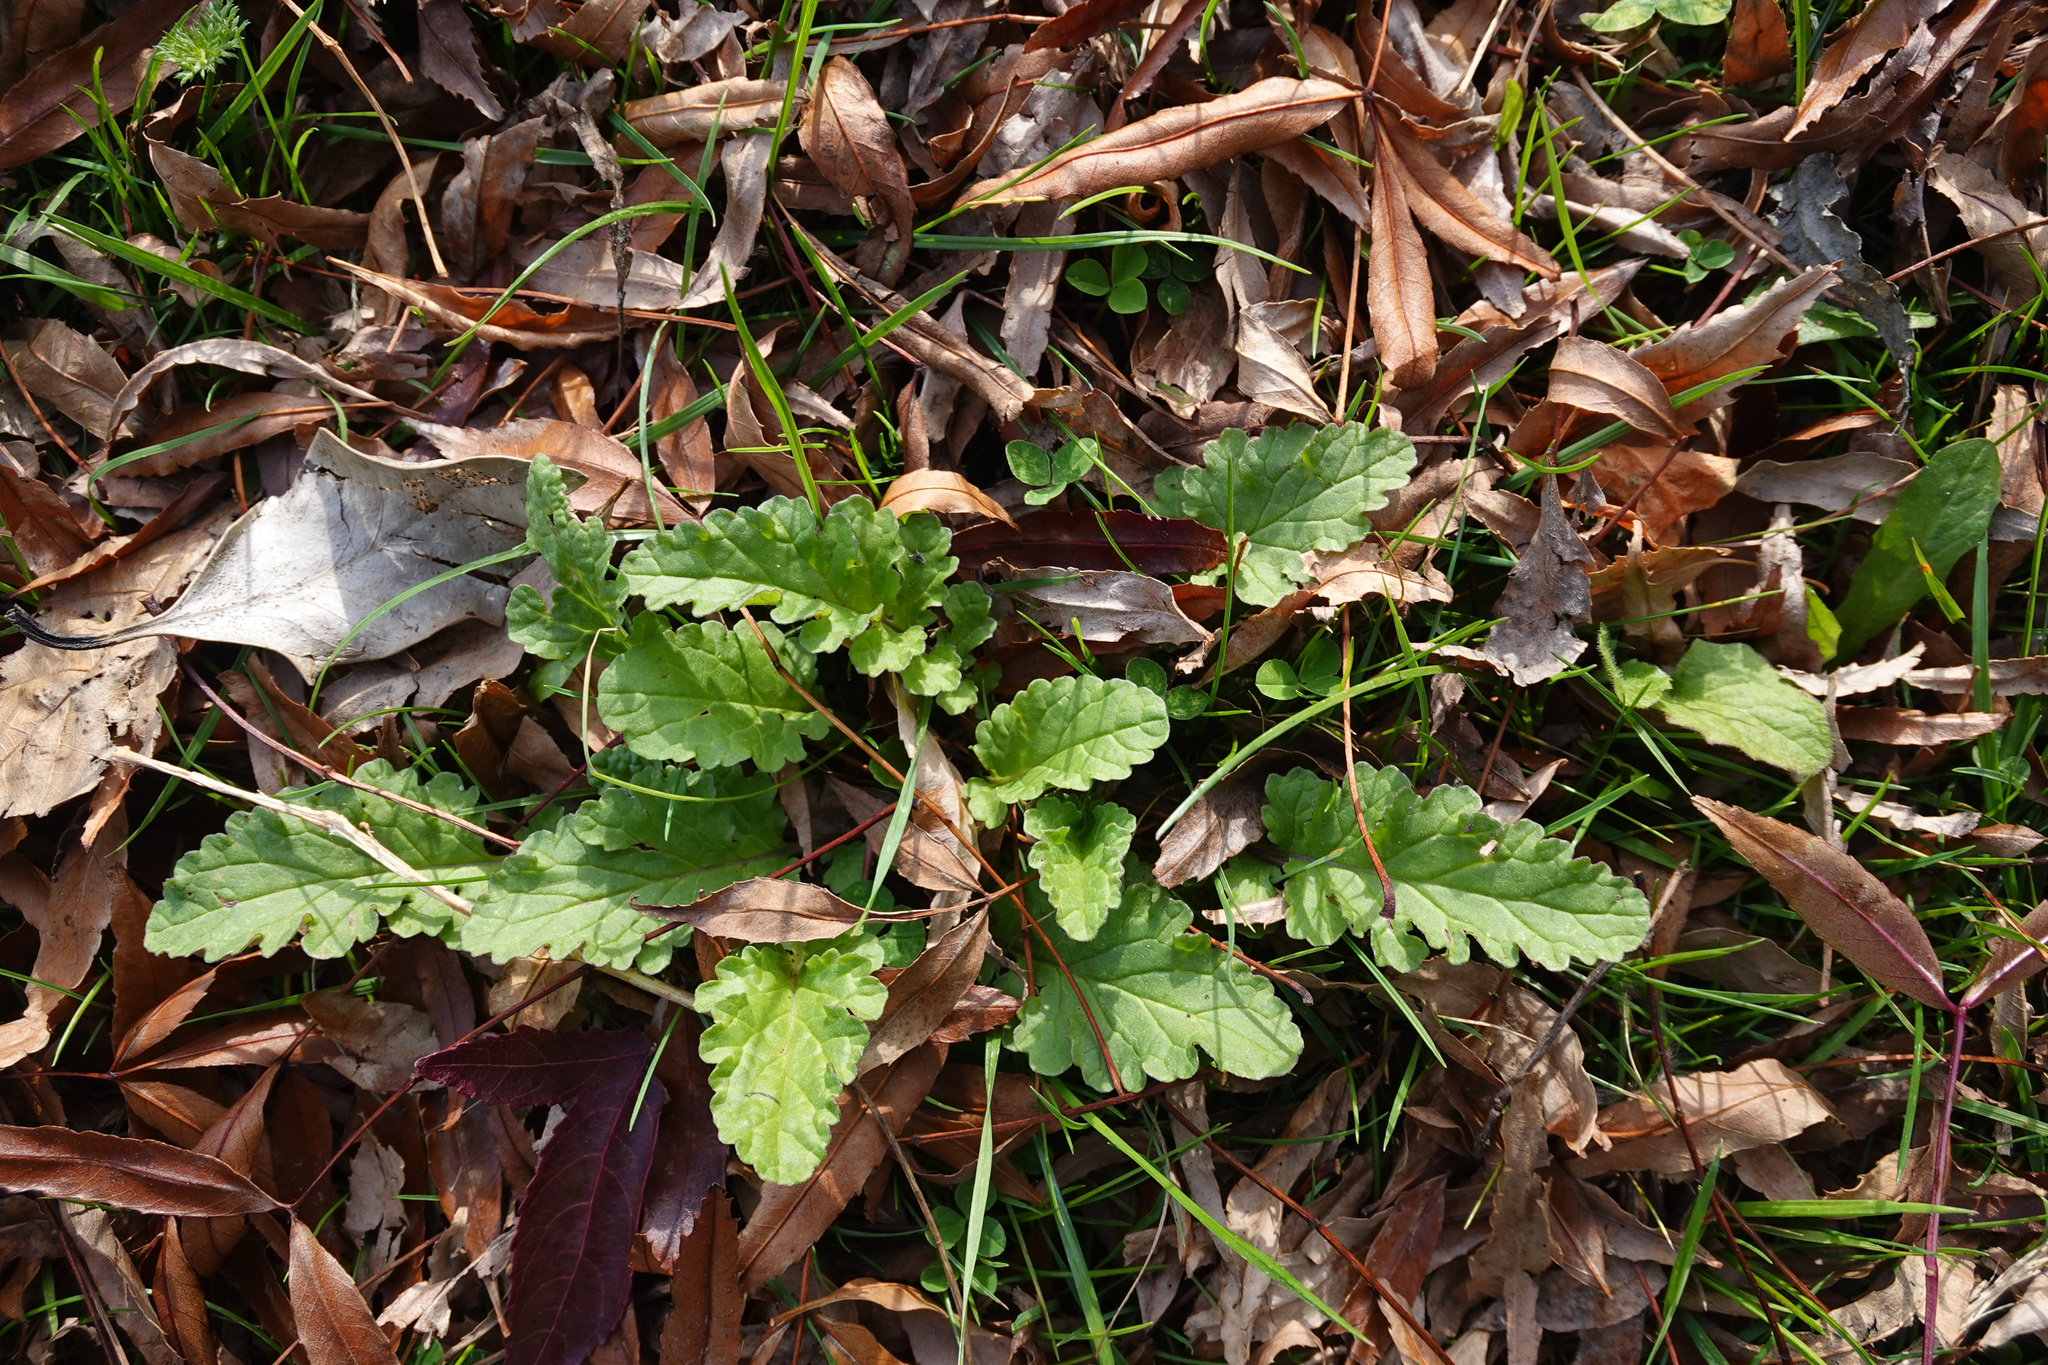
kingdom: Plantae
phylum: Tracheophyta
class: Magnoliopsida
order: Asterales
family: Asteraceae
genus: Jacobaea
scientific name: Jacobaea vulgaris
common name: Stinking willie
